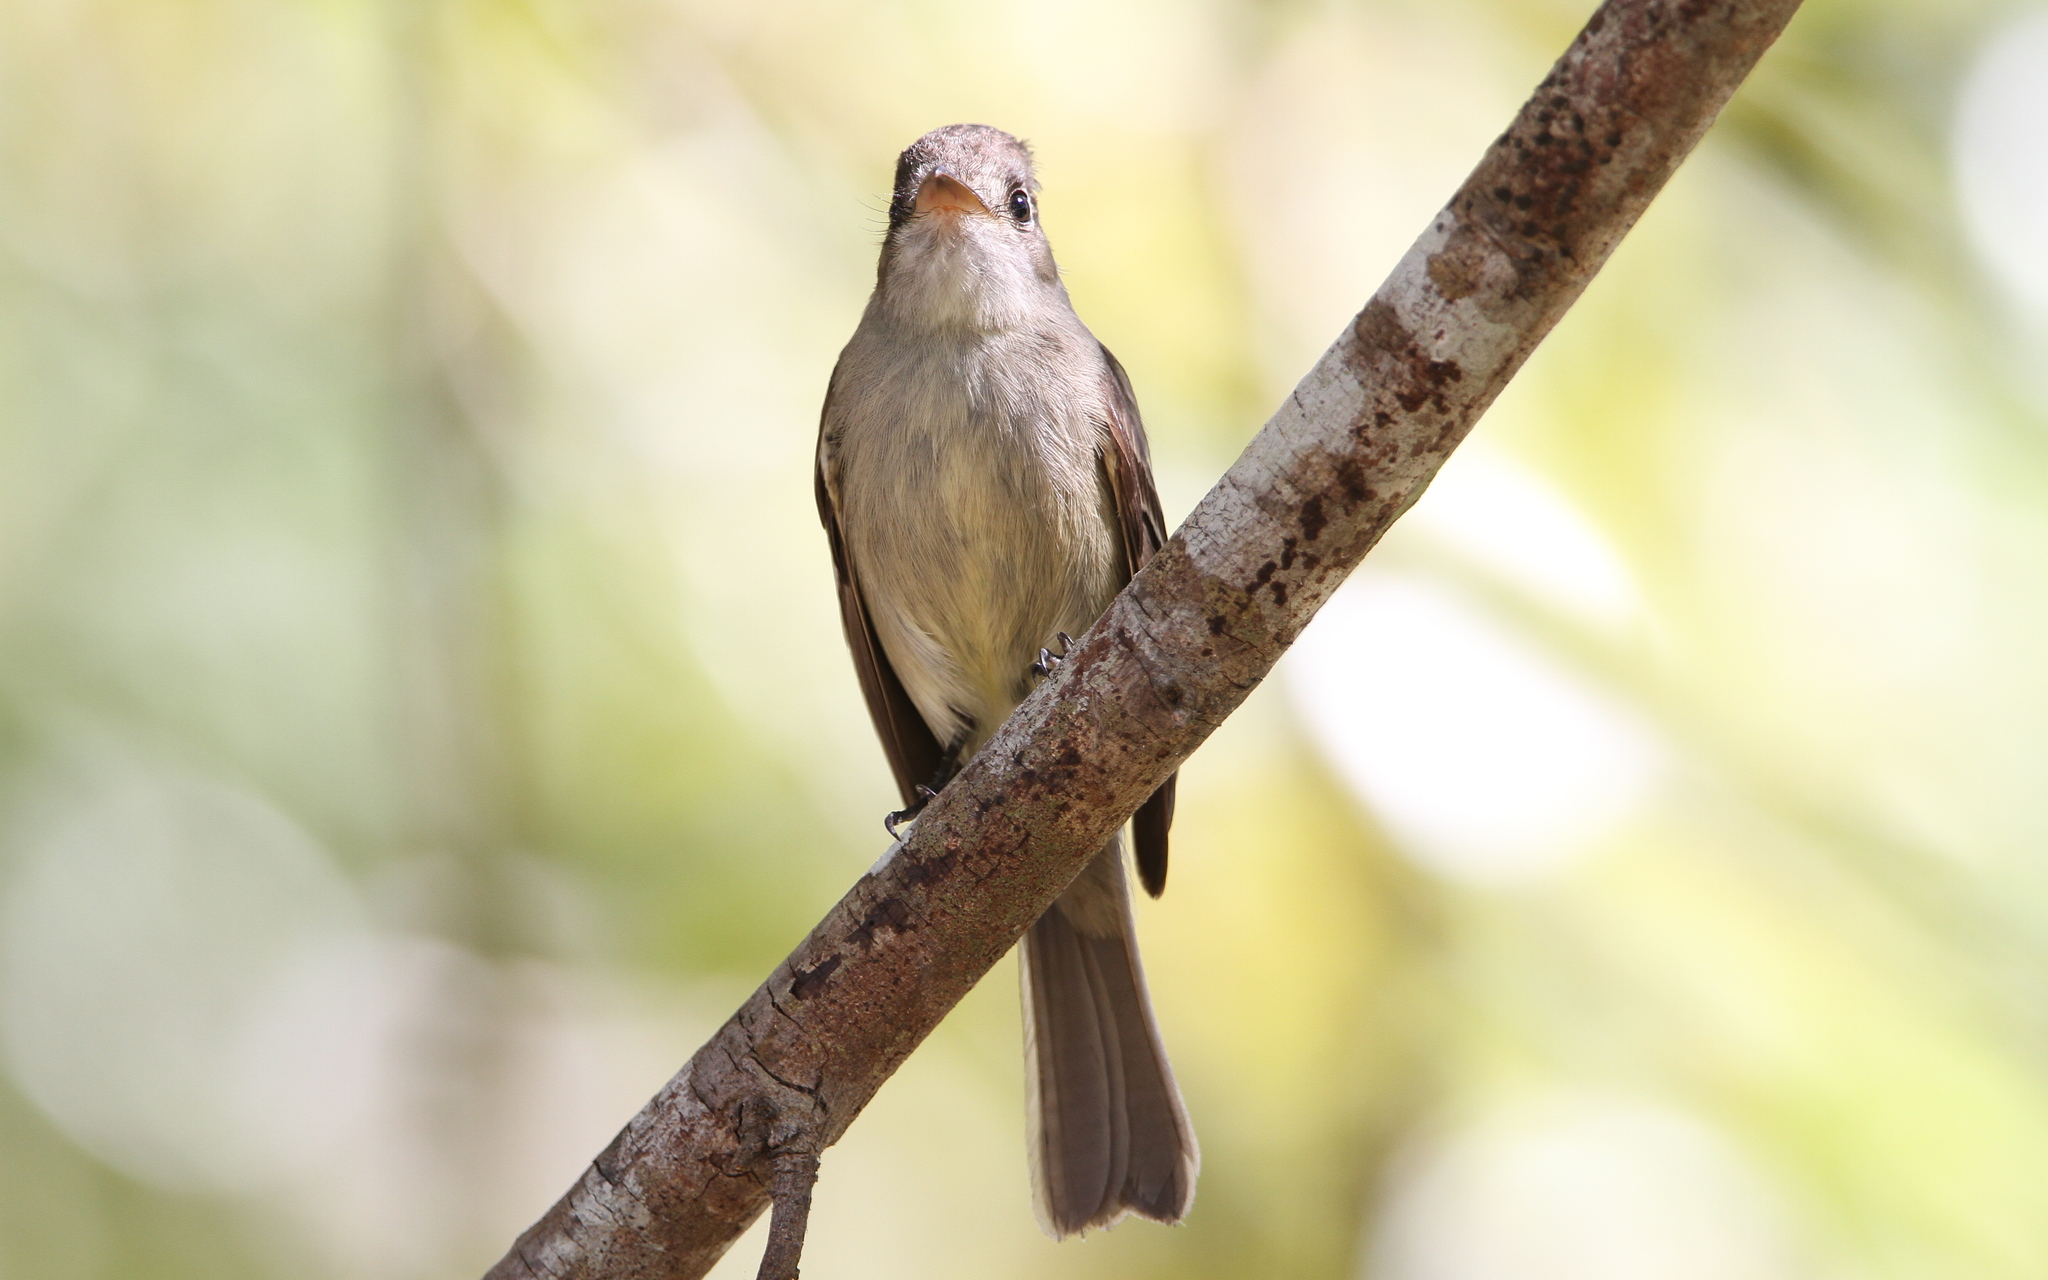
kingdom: Animalia
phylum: Chordata
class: Aves
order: Passeriformes
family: Tyrannidae
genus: Contopus
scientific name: Contopus caribaeus
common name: Cuban pewee
